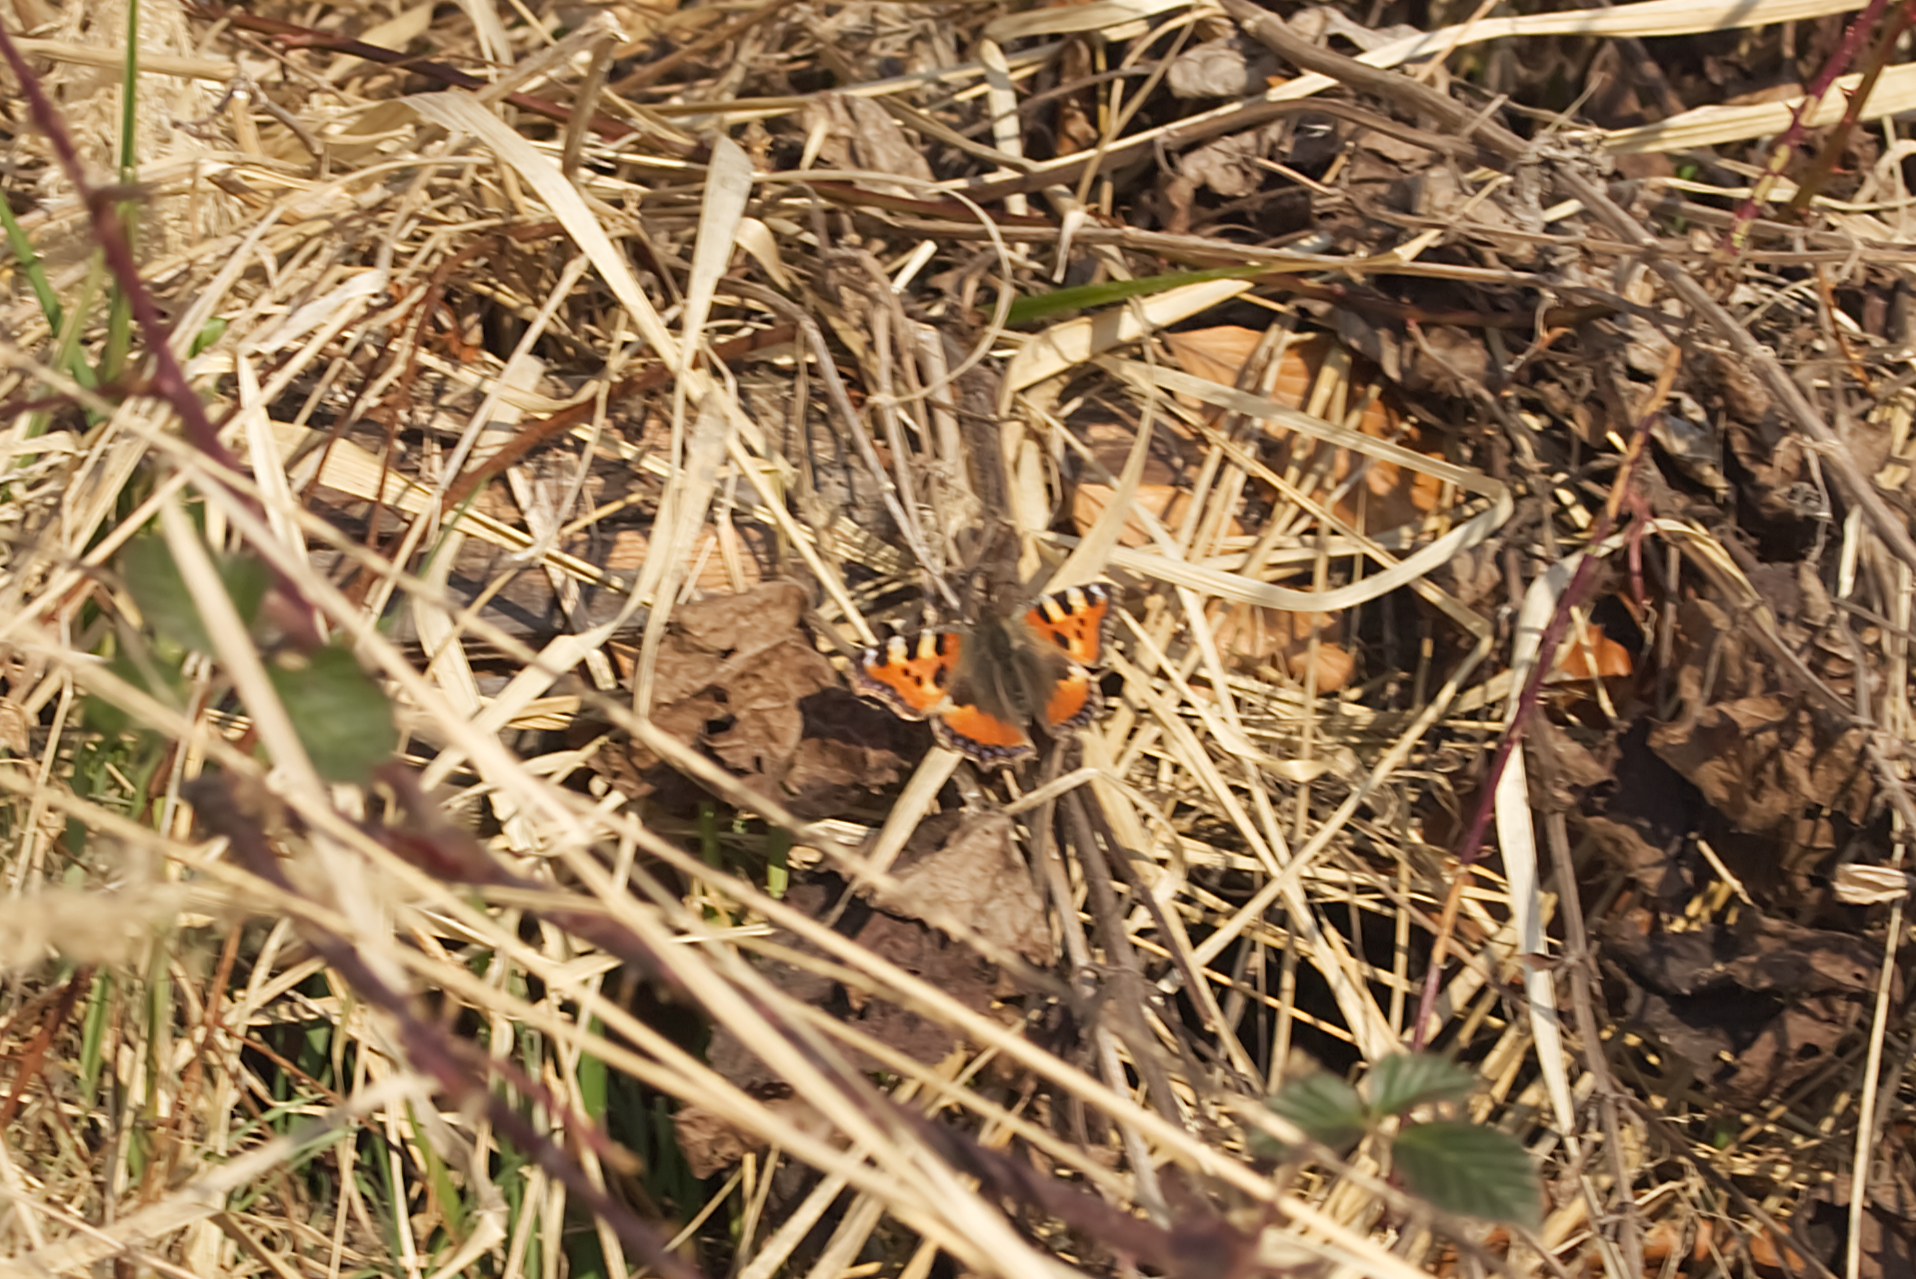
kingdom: Animalia
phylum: Arthropoda
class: Insecta
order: Lepidoptera
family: Nymphalidae
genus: Aglais
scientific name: Aglais urticae
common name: Small tortoiseshell
